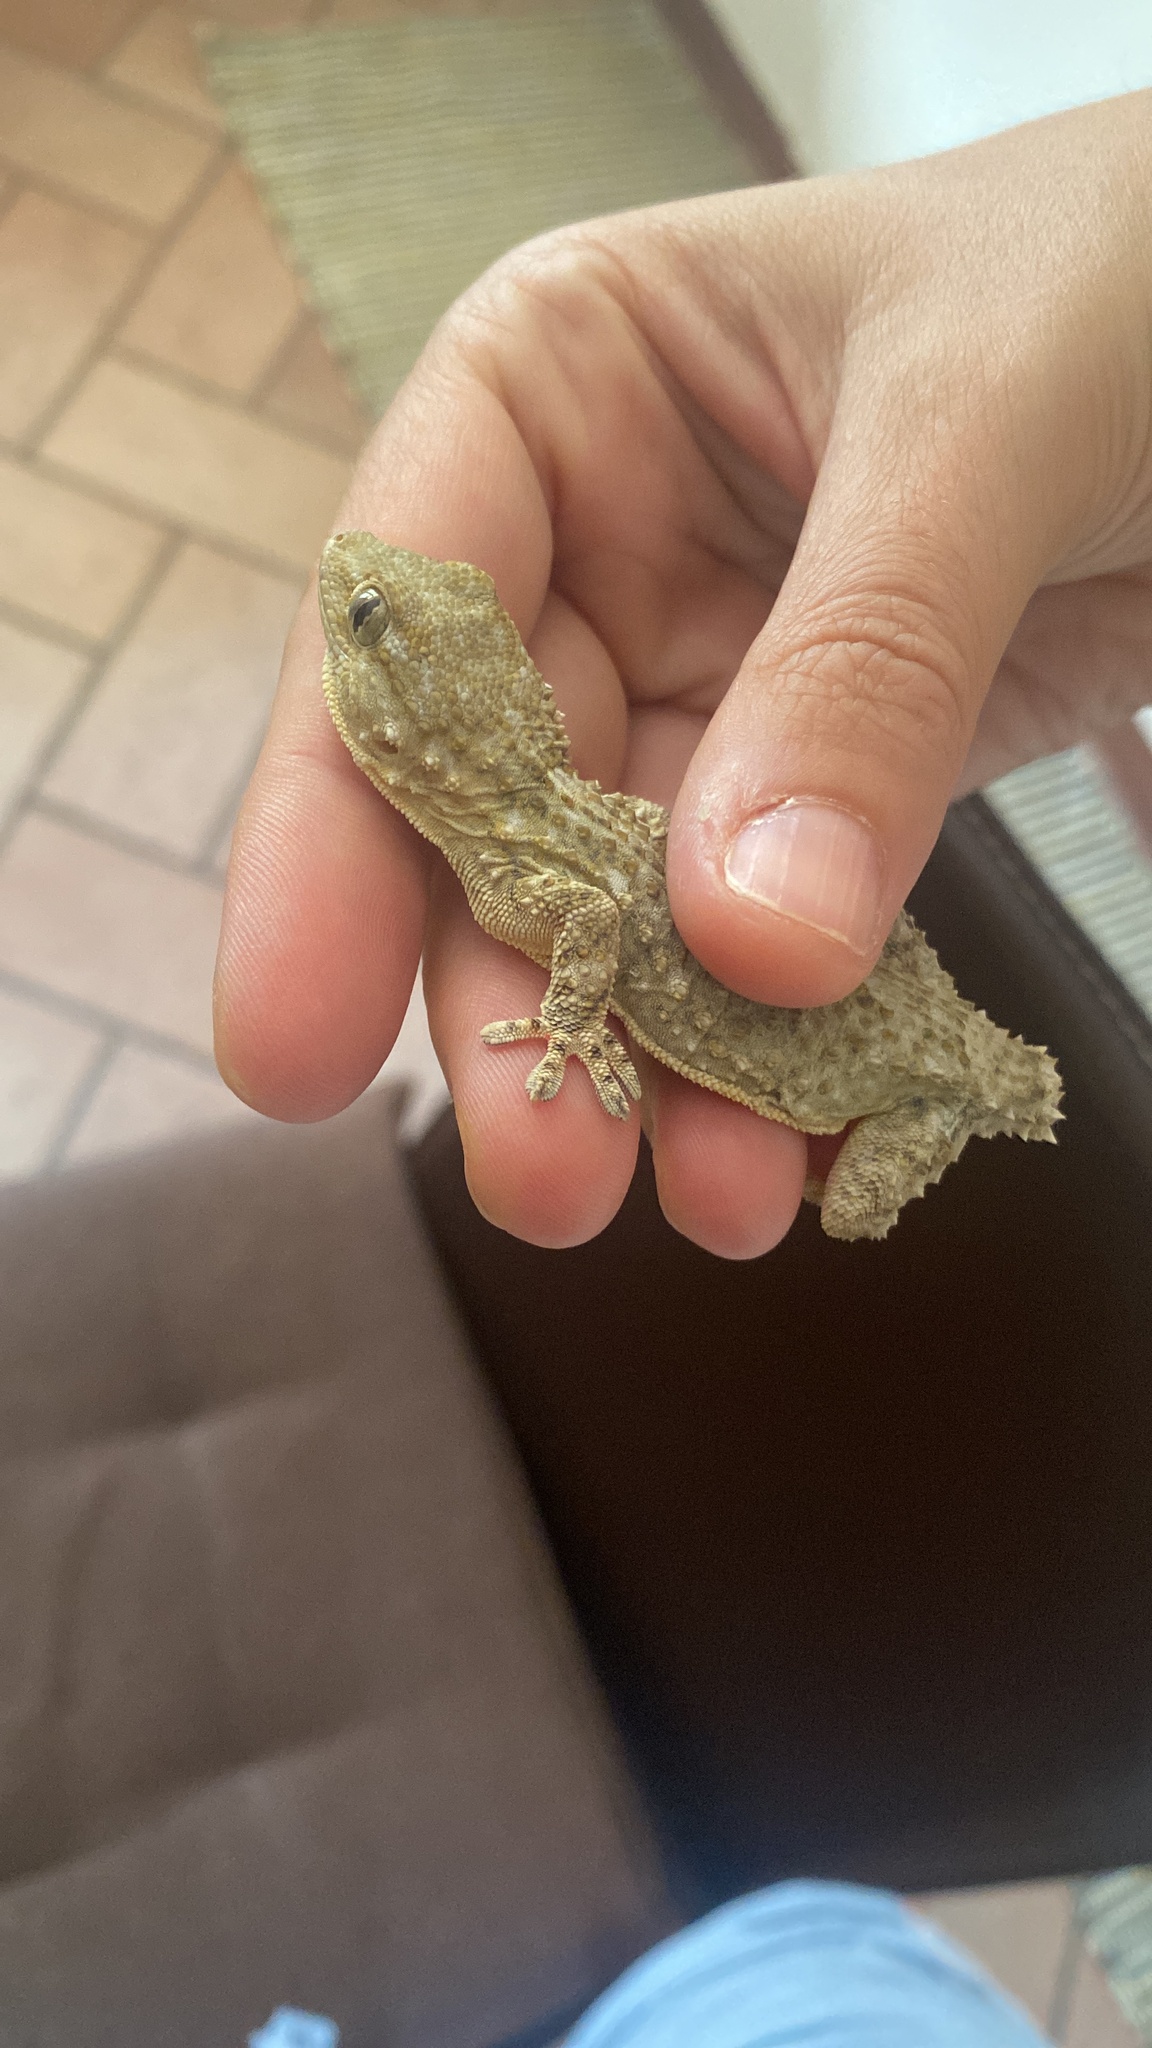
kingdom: Animalia
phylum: Chordata
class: Squamata
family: Phyllodactylidae
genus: Tarentola
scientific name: Tarentola mauritanica
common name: Moorish gecko
